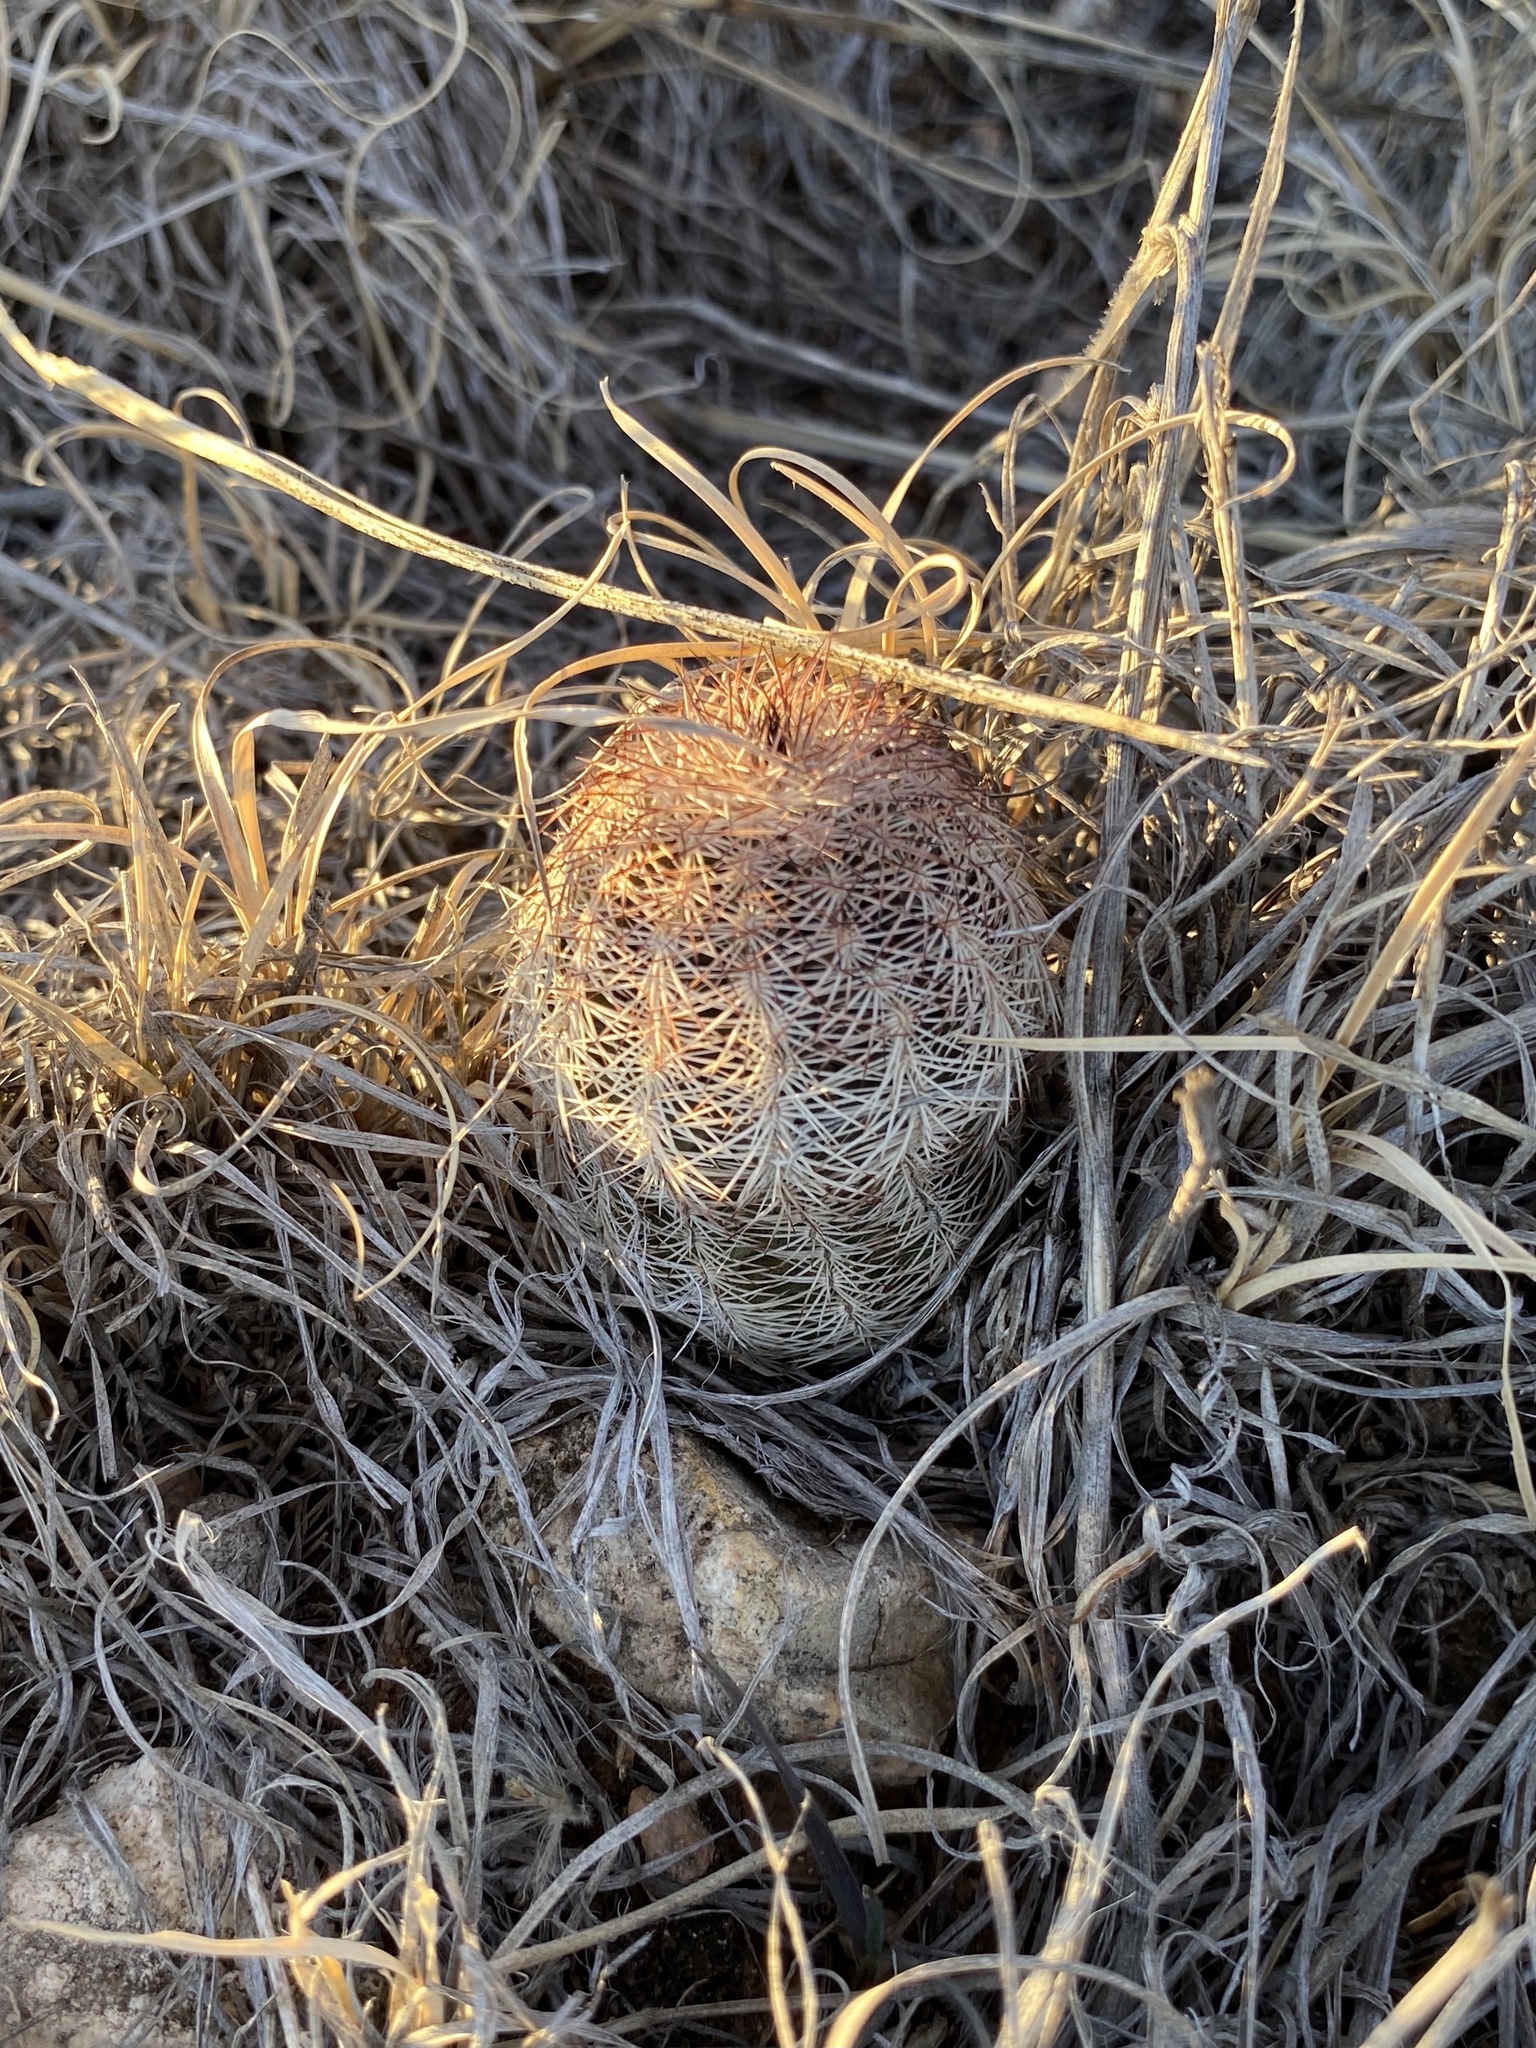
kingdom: Plantae
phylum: Tracheophyta
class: Magnoliopsida
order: Caryophyllales
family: Cactaceae
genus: Echinocereus
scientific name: Echinocereus reichenbachii
